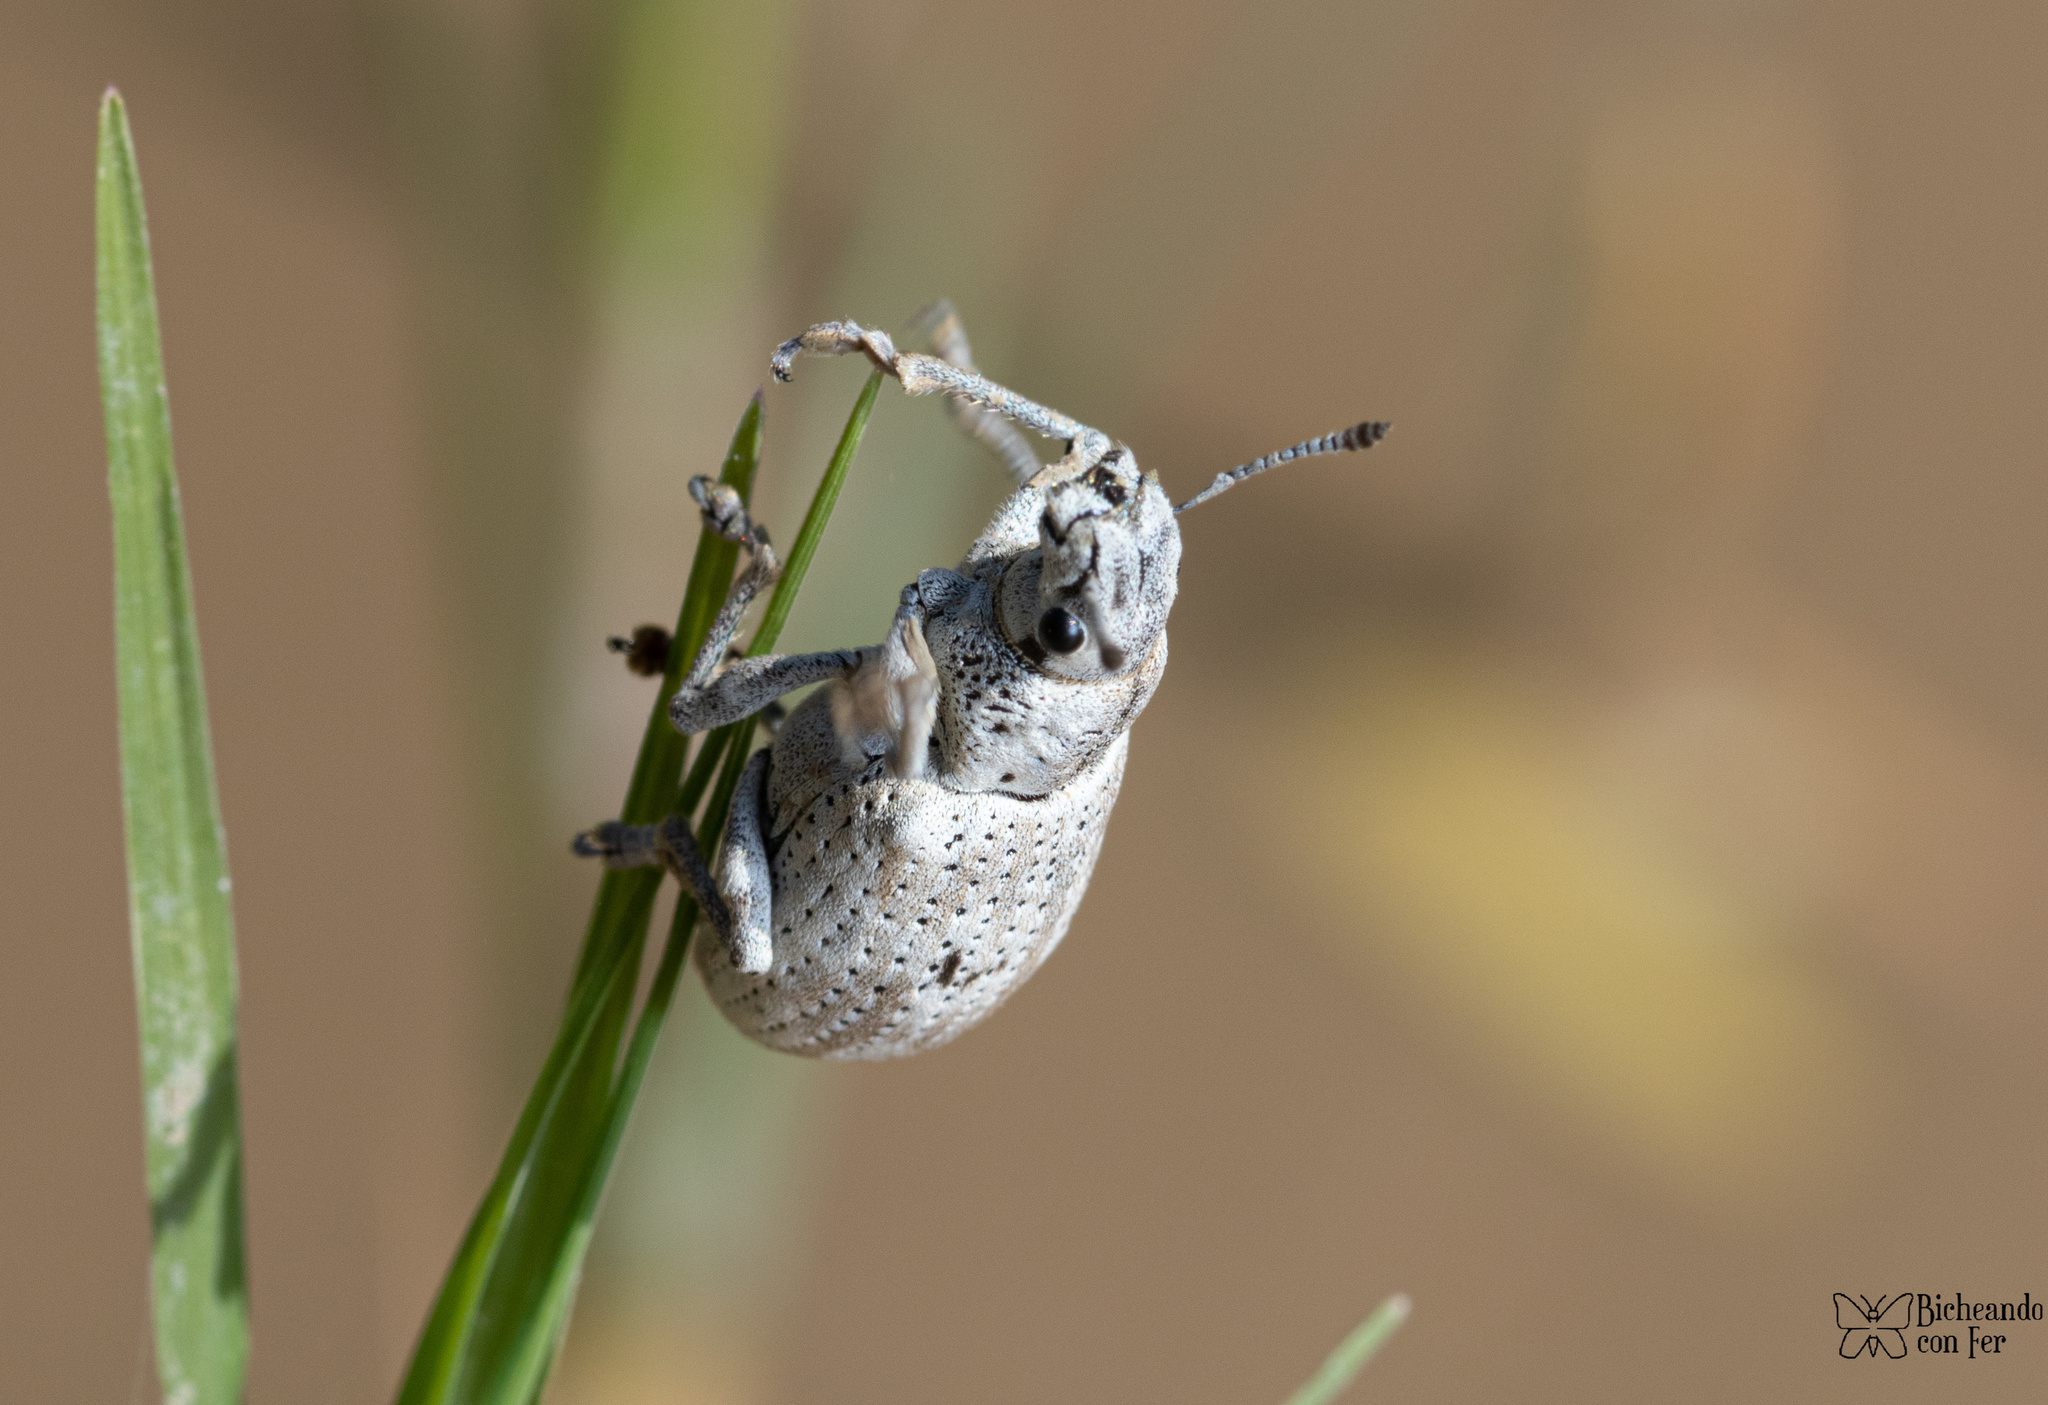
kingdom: Animalia
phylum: Arthropoda
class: Insecta
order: Coleoptera
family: Curculionidae
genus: Ericydeus
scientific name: Ericydeus lautus
